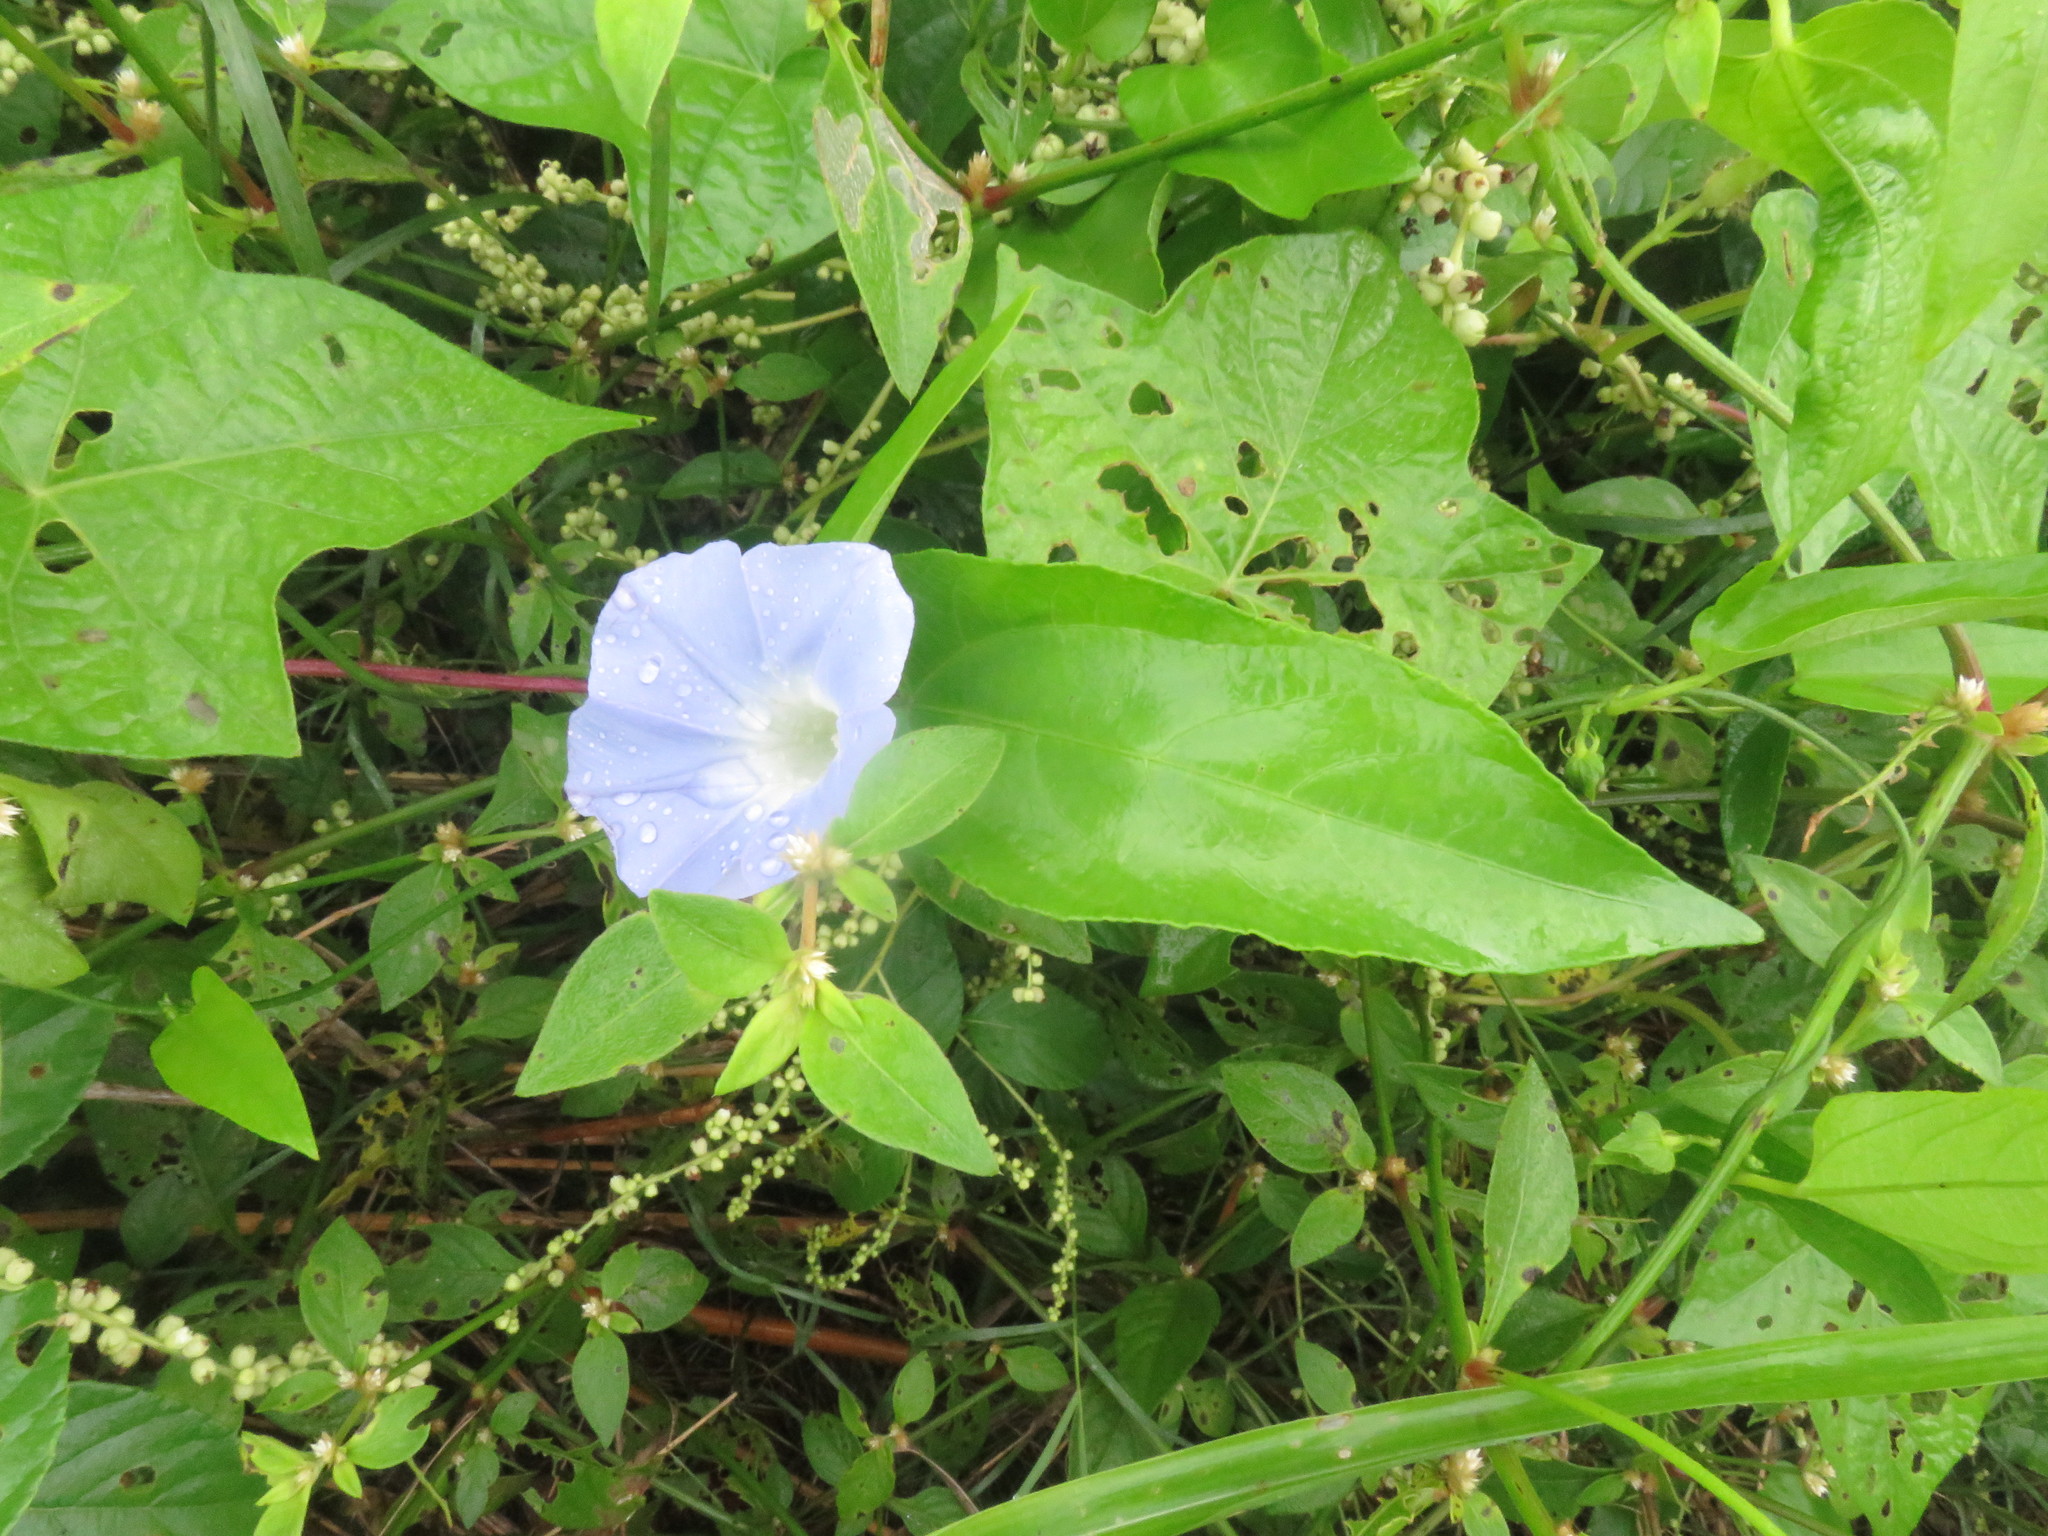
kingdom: Plantae
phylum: Tracheophyta
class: Magnoliopsida
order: Solanales
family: Convolvulaceae
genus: Ipomoea
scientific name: Ipomoea nil
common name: Japanese morning-glory
